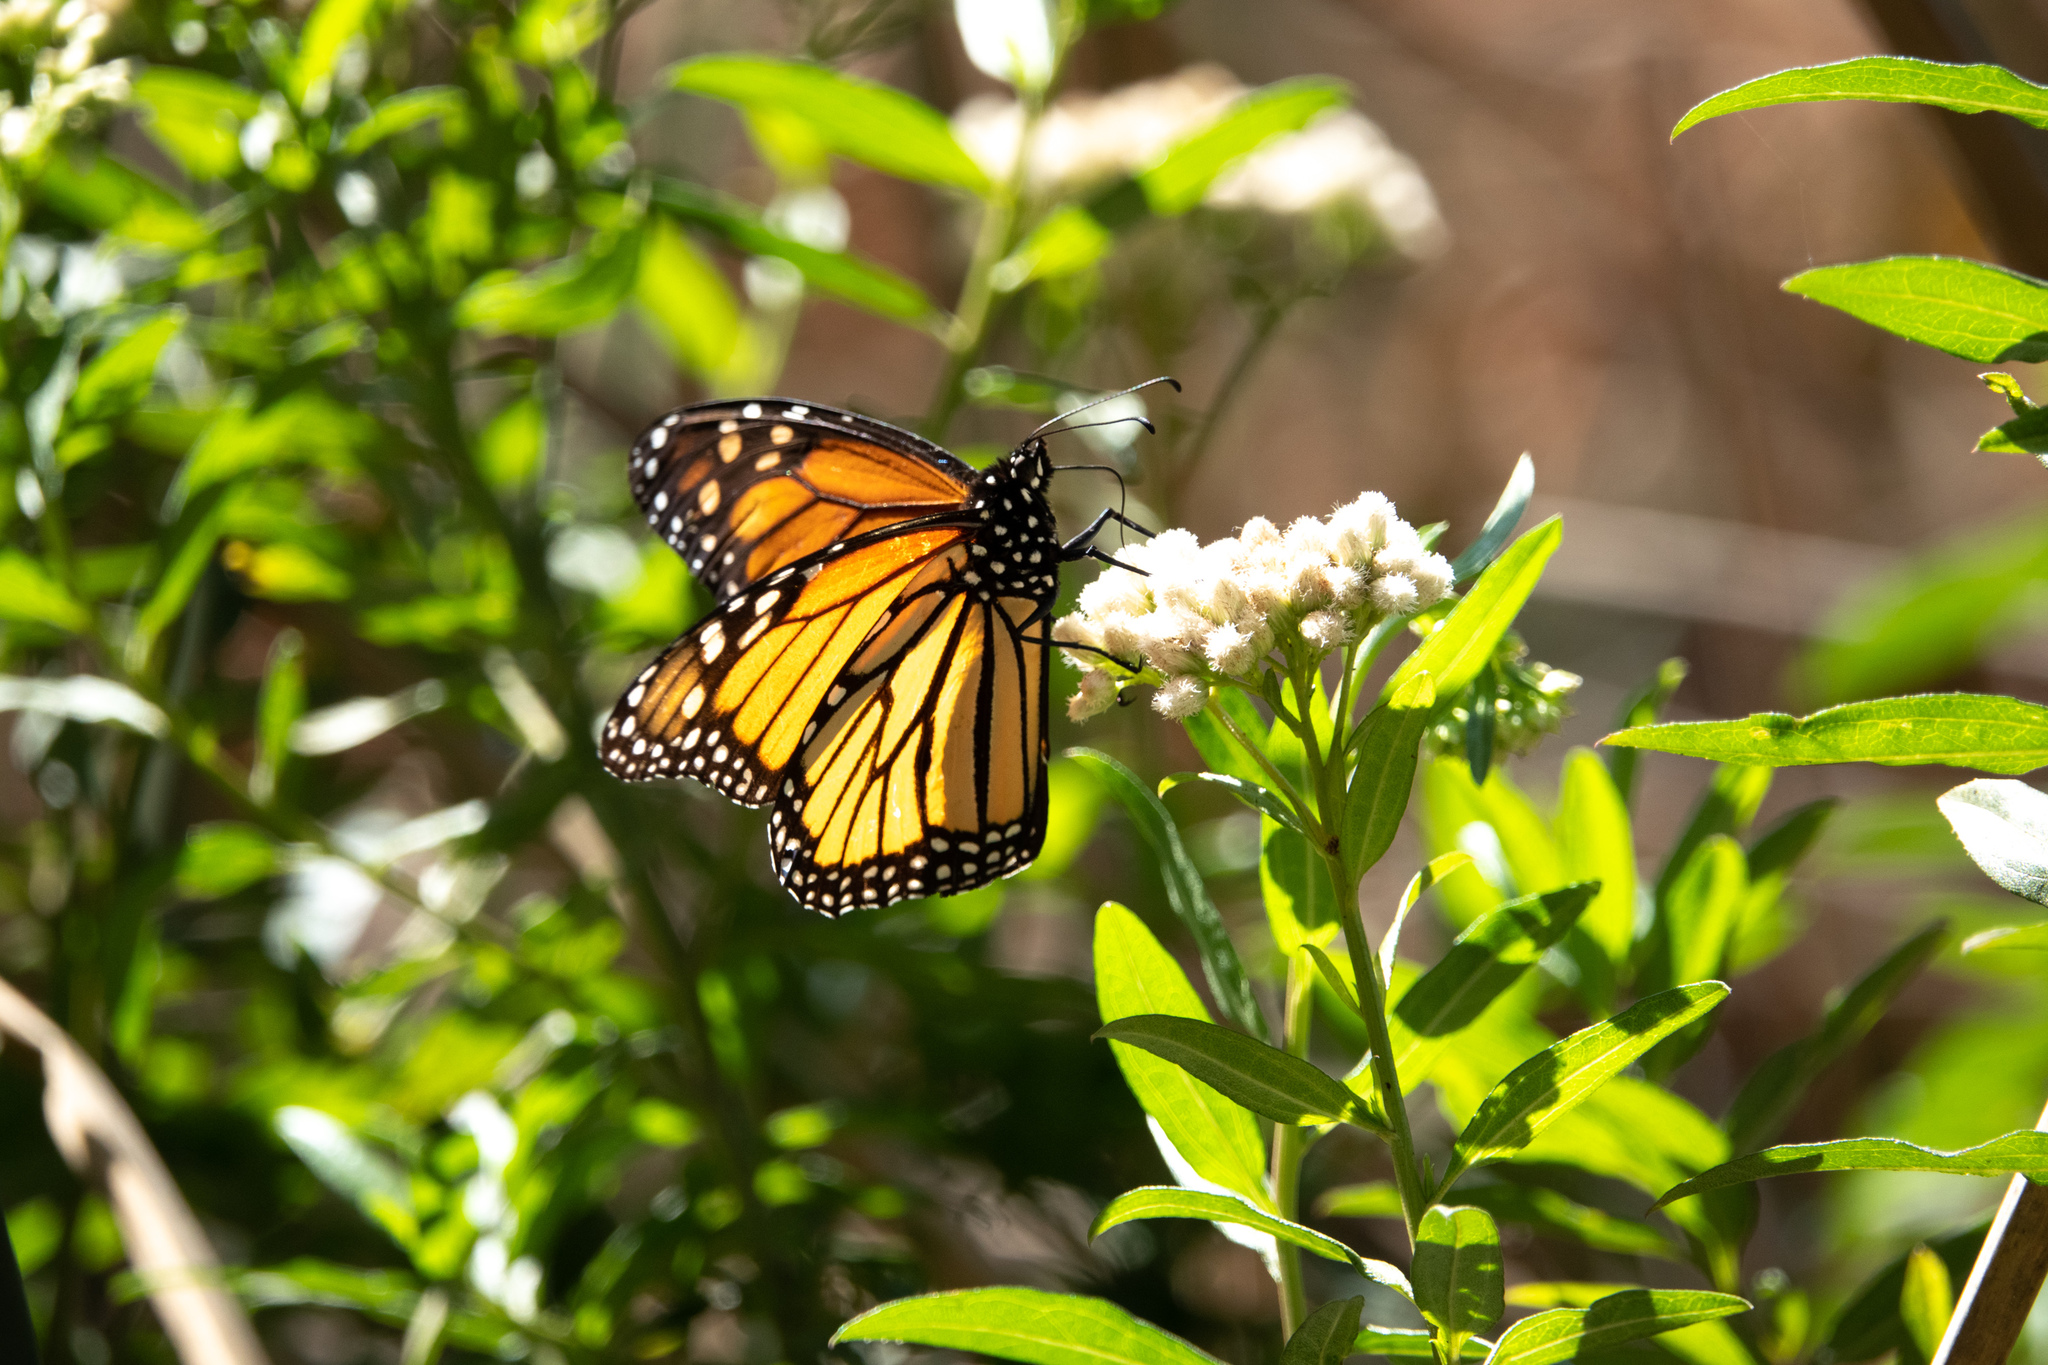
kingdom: Animalia
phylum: Arthropoda
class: Insecta
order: Lepidoptera
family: Nymphalidae
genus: Danaus
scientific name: Danaus plexippus
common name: Monarch
